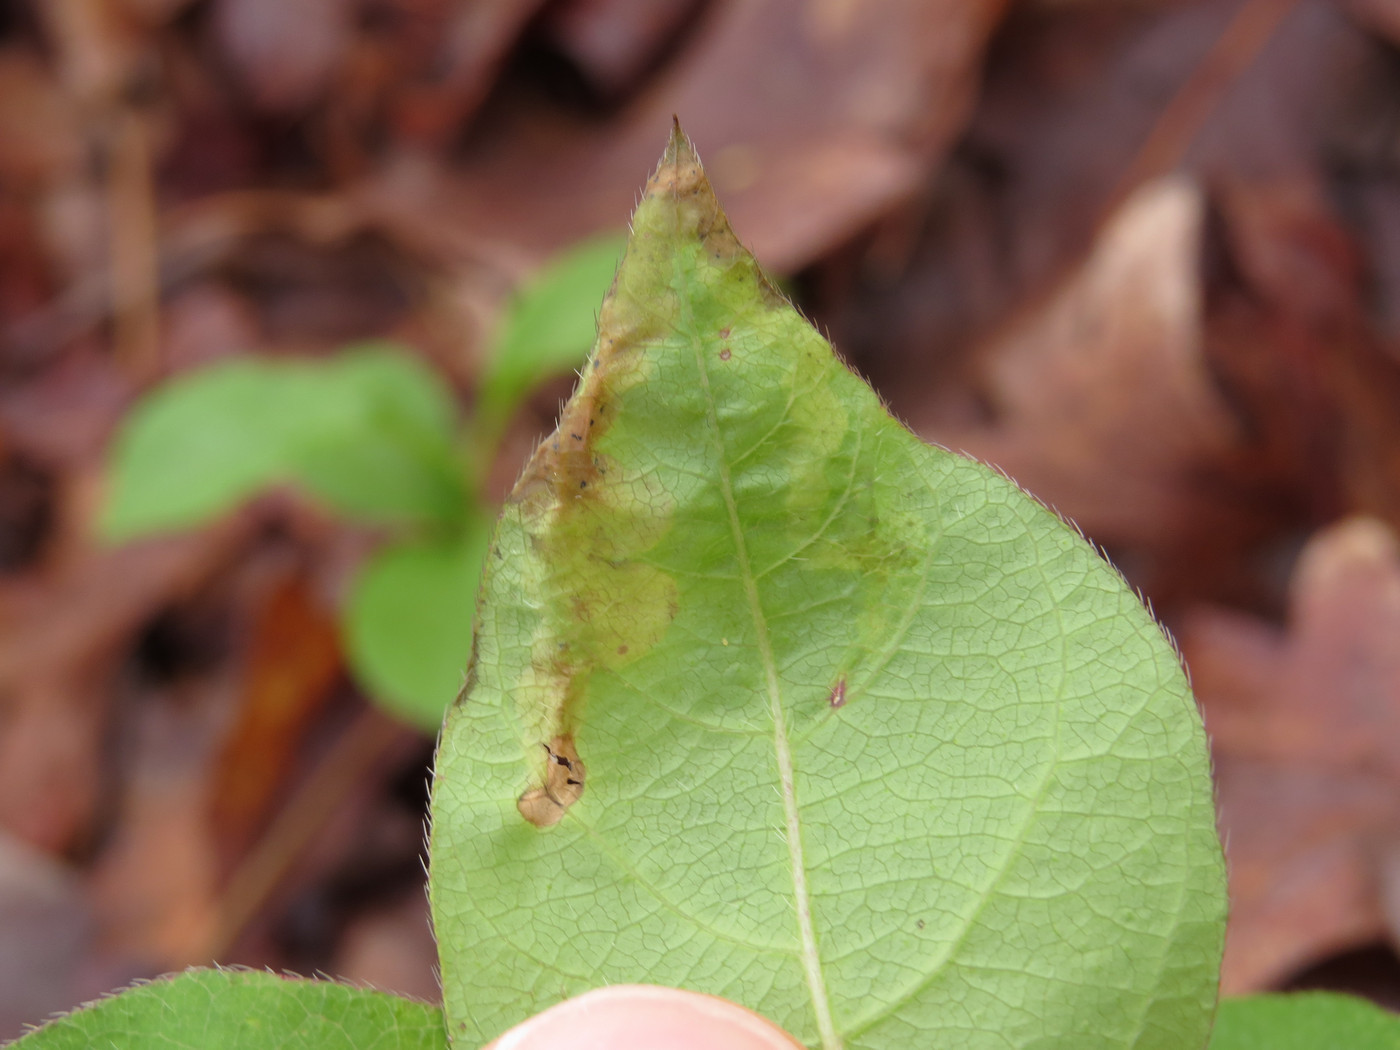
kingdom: Animalia
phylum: Arthropoda
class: Insecta
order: Diptera
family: Agromyzidae
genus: Aulagromyza
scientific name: Aulagromyza cornigera
